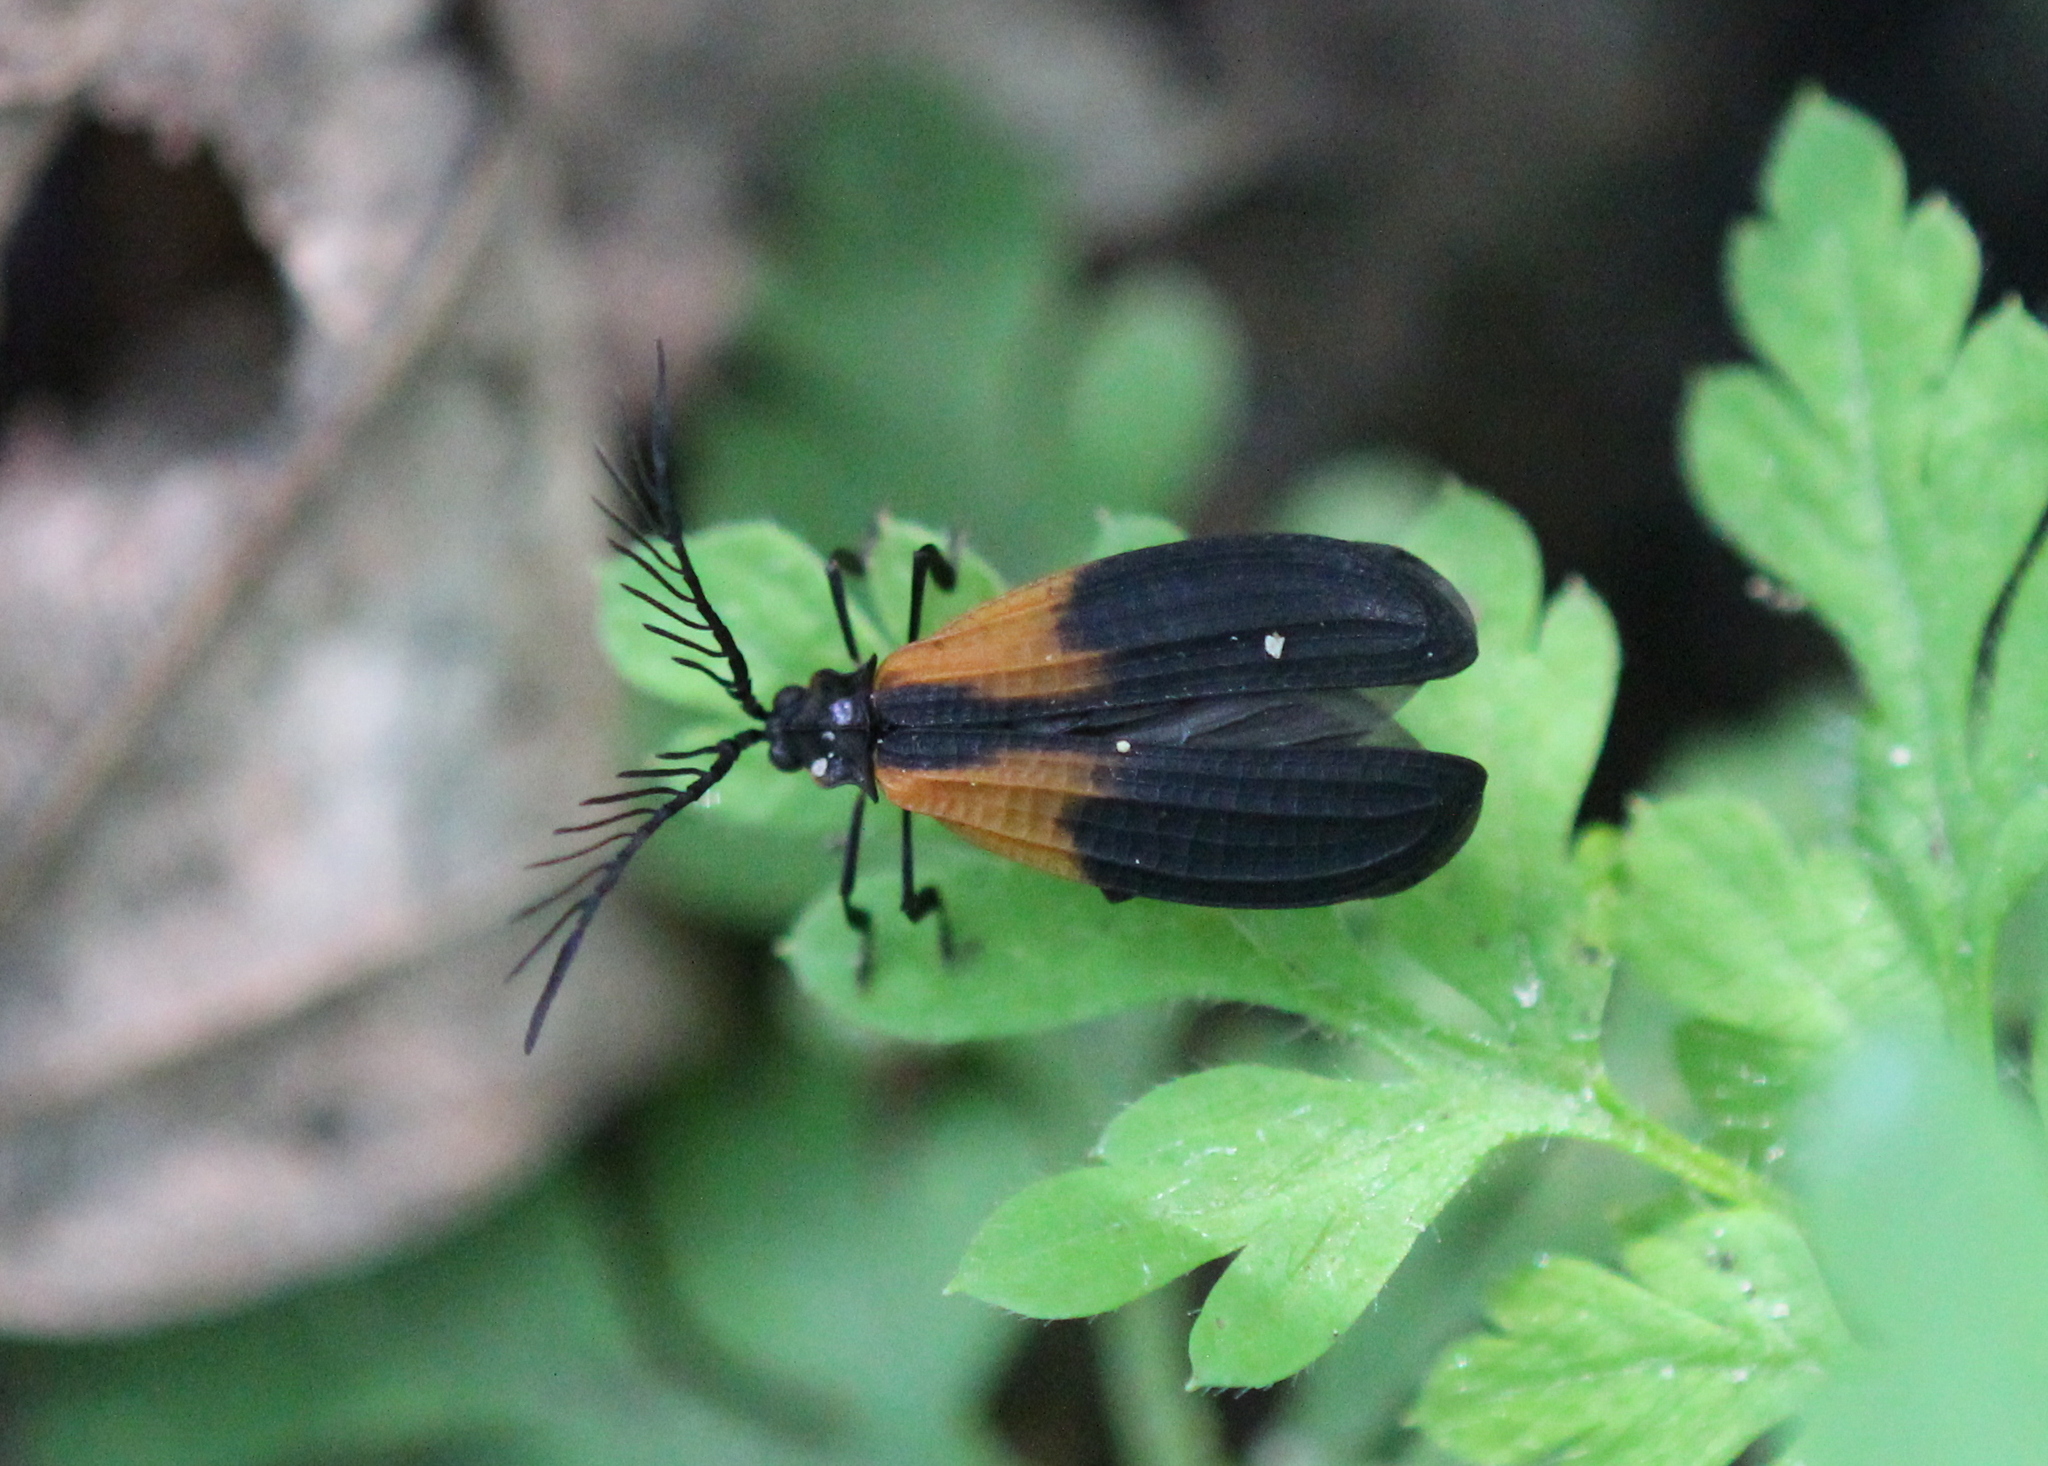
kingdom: Animalia
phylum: Arthropoda
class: Insecta
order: Coleoptera
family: Lycidae
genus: Caenia
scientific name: Caenia dimidiata
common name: Terminal net-winged beetle
